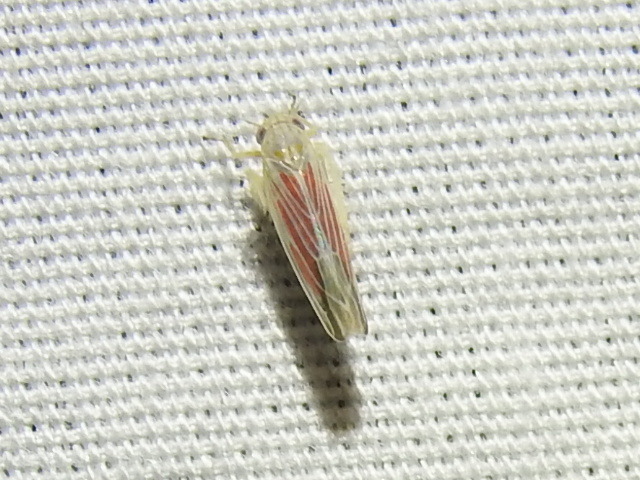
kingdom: Animalia
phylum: Arthropoda
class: Insecta
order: Hemiptera
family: Cicadellidae
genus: Balclutha
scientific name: Balclutha rubrostriata
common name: Red-streaked leafhopper
